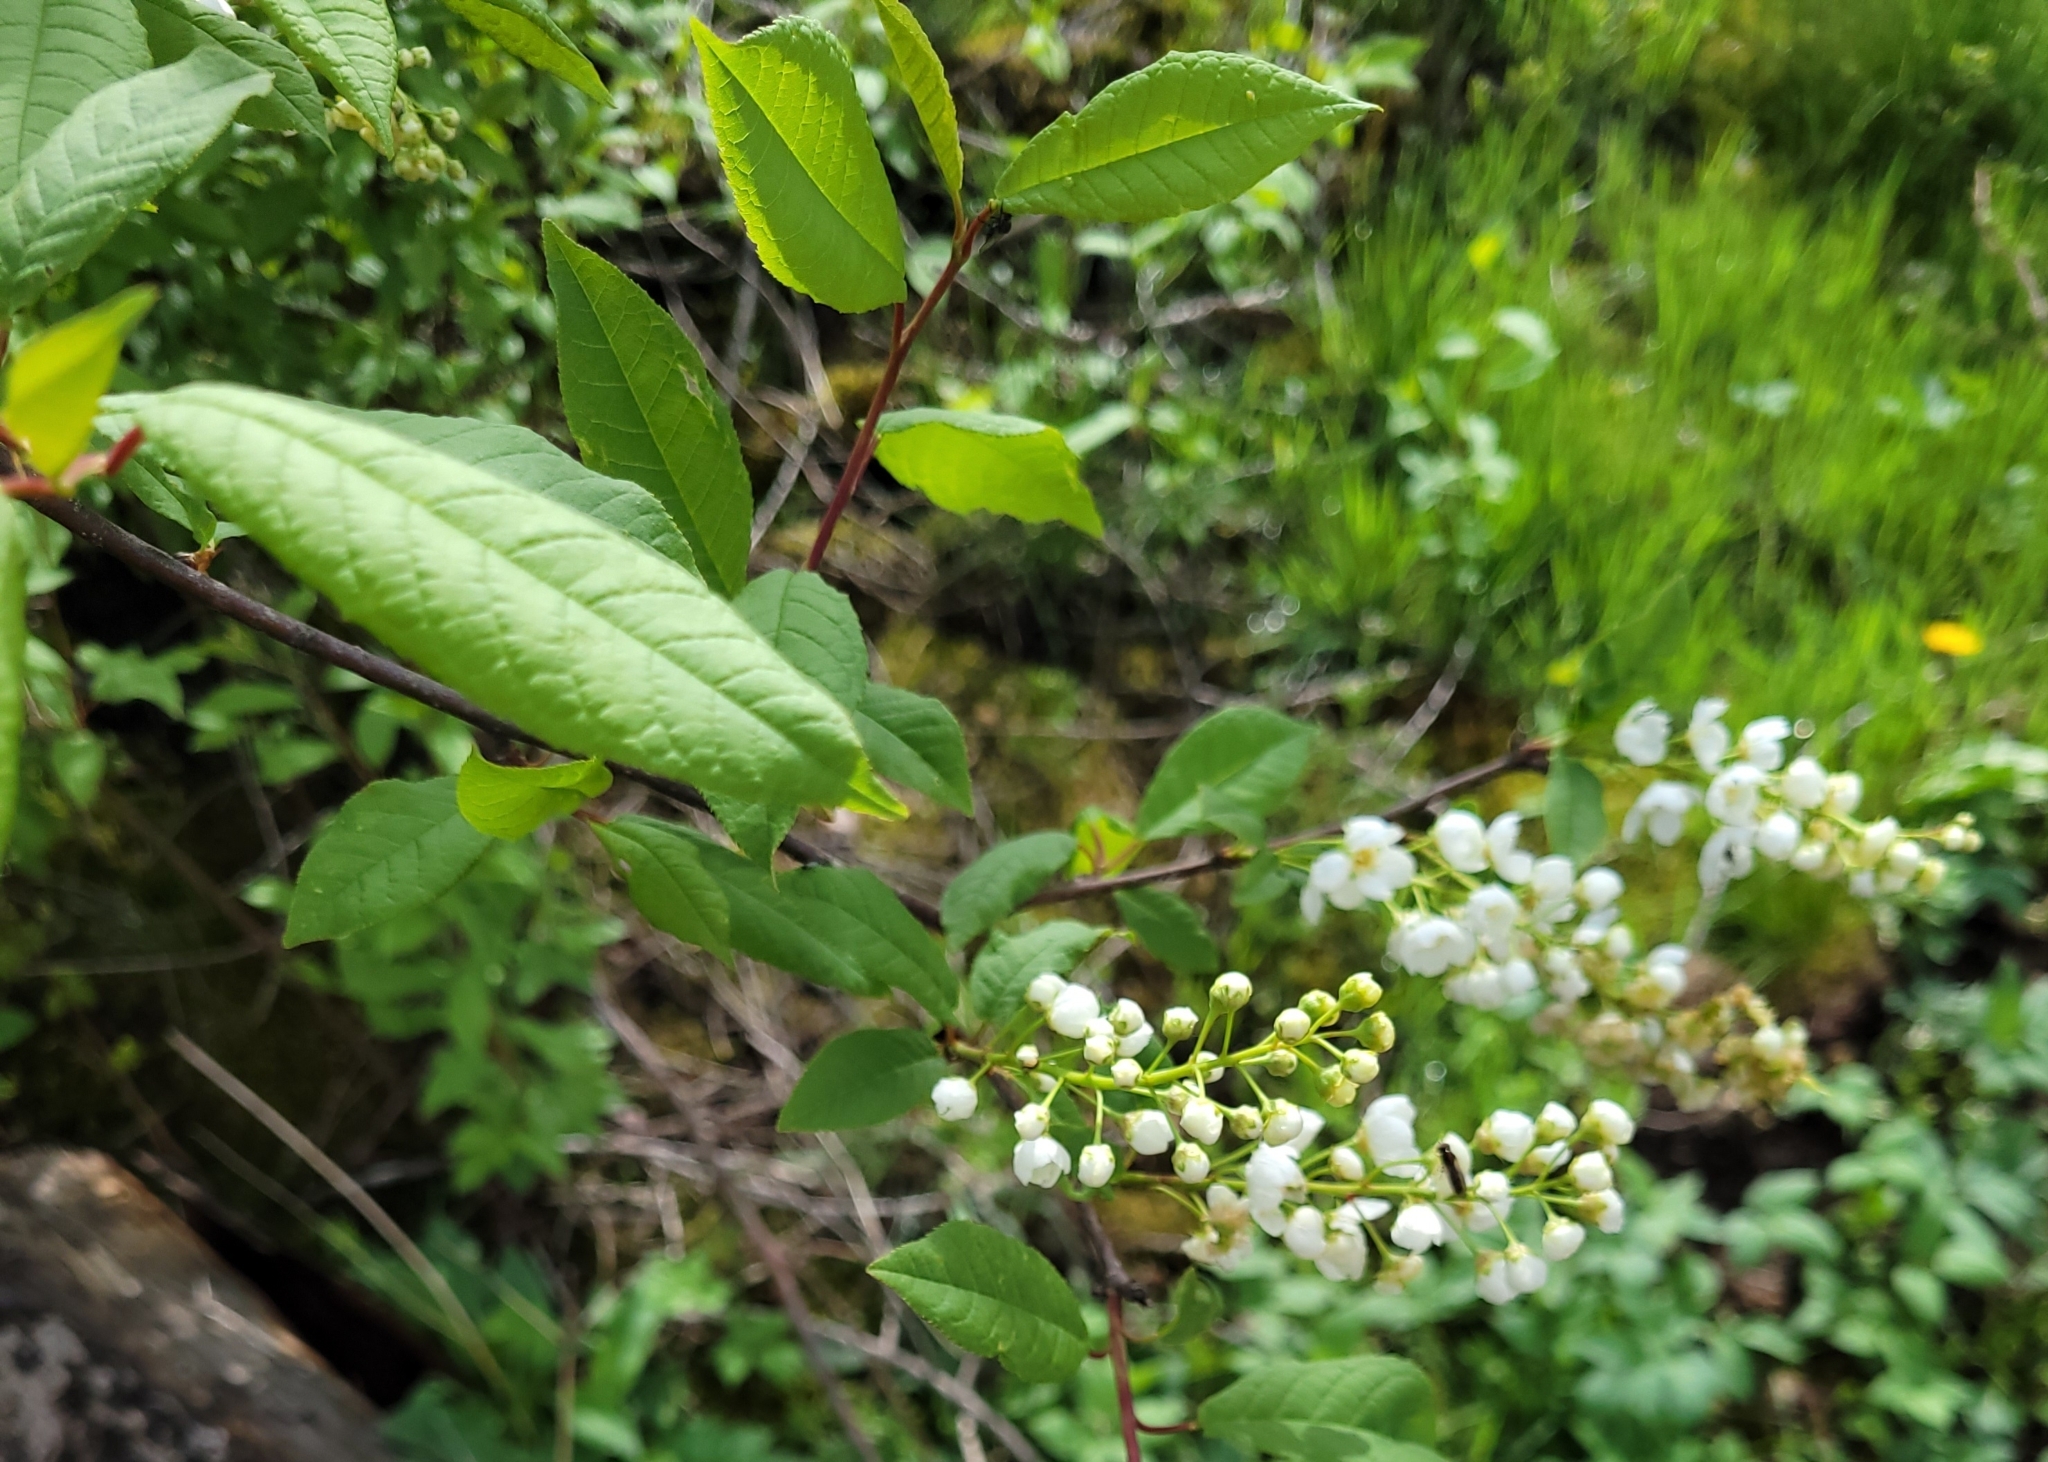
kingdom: Plantae
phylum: Tracheophyta
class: Magnoliopsida
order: Rosales
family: Rosaceae
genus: Prunus
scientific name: Prunus padus
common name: Bird cherry
